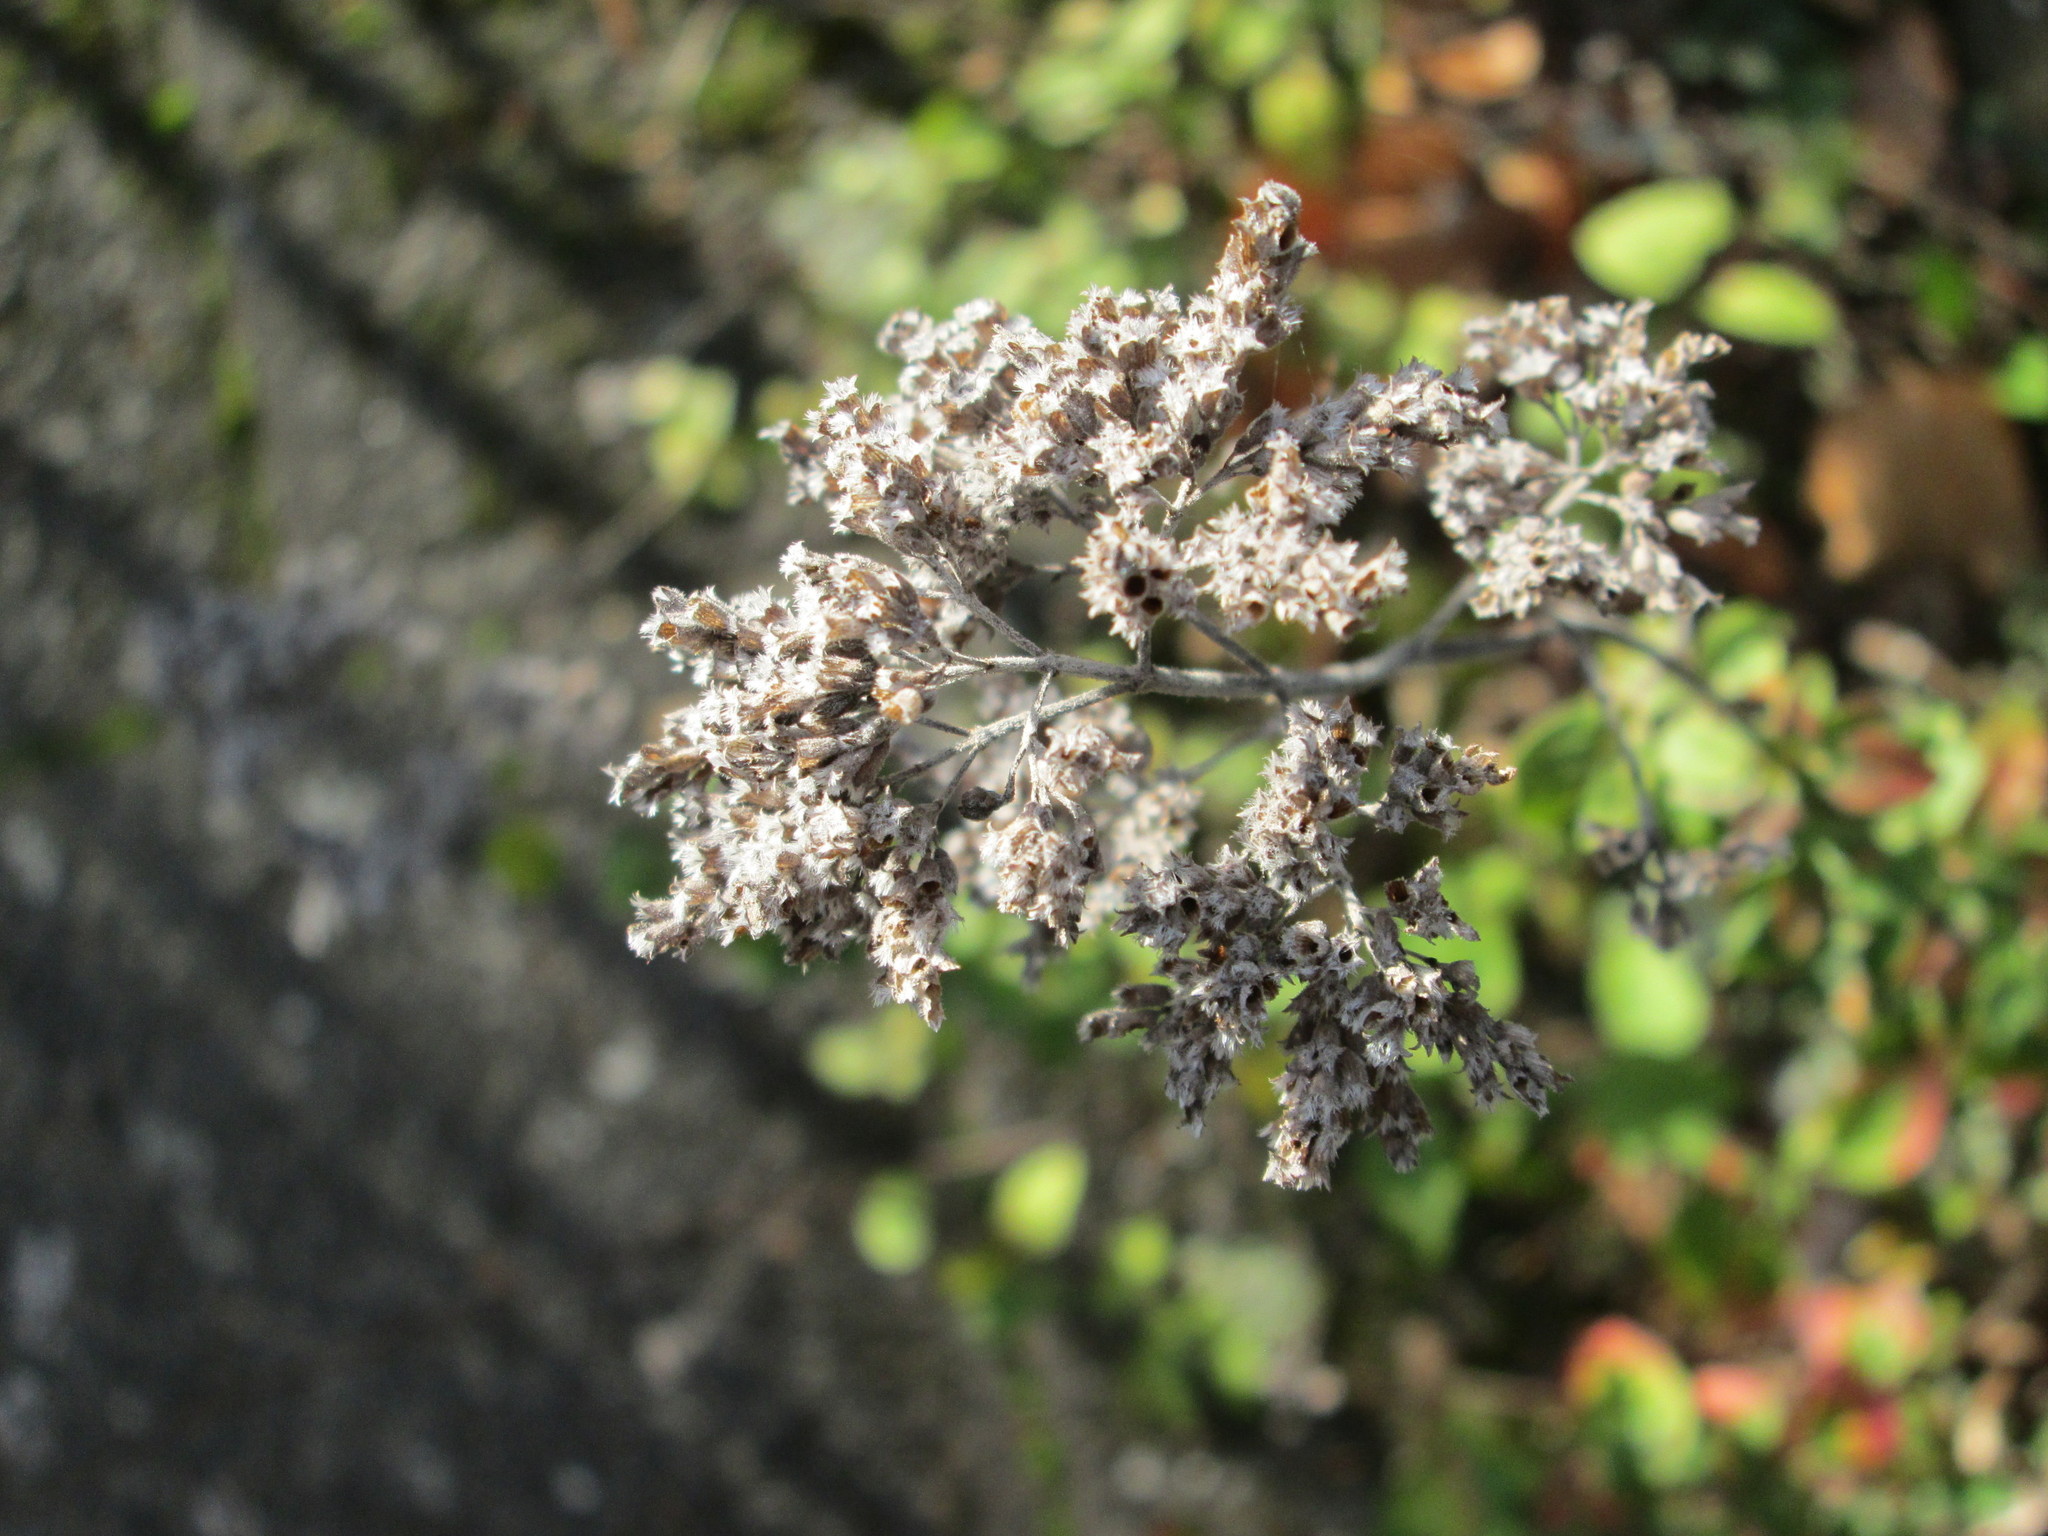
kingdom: Plantae
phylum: Tracheophyta
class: Magnoliopsida
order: Lamiales
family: Lamiaceae
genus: Origanum
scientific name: Origanum vulgare
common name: Wild marjoram
